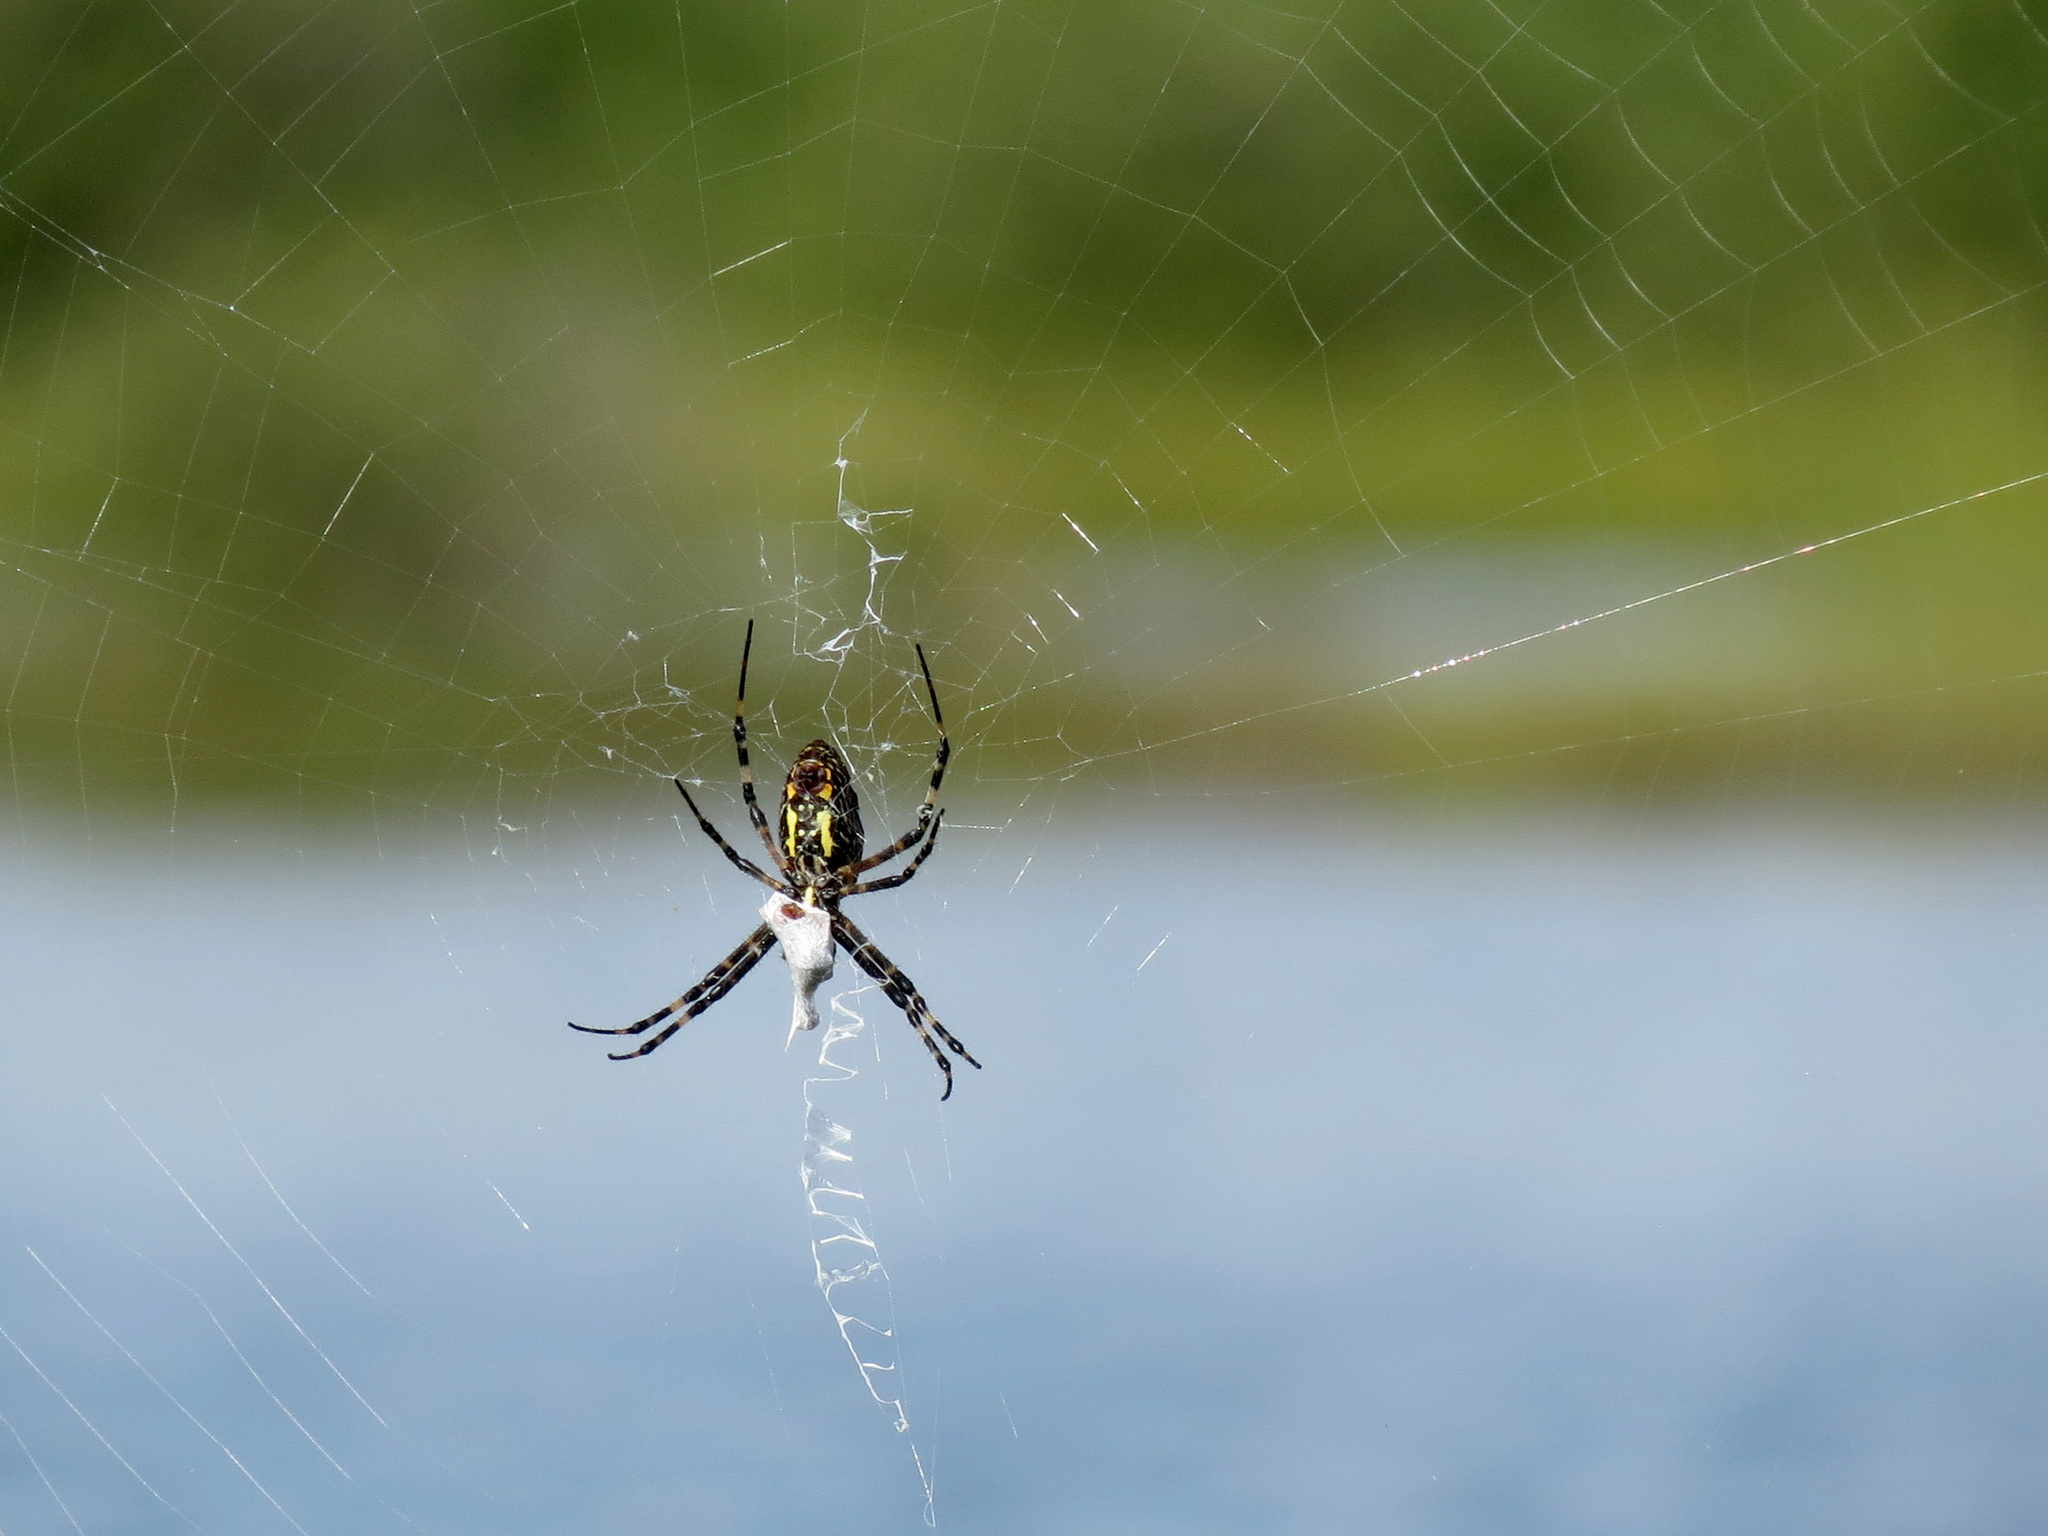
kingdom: Animalia
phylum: Arthropoda
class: Arachnida
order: Araneae
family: Araneidae
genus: Argiope
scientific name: Argiope aurantia
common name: Orb weavers
